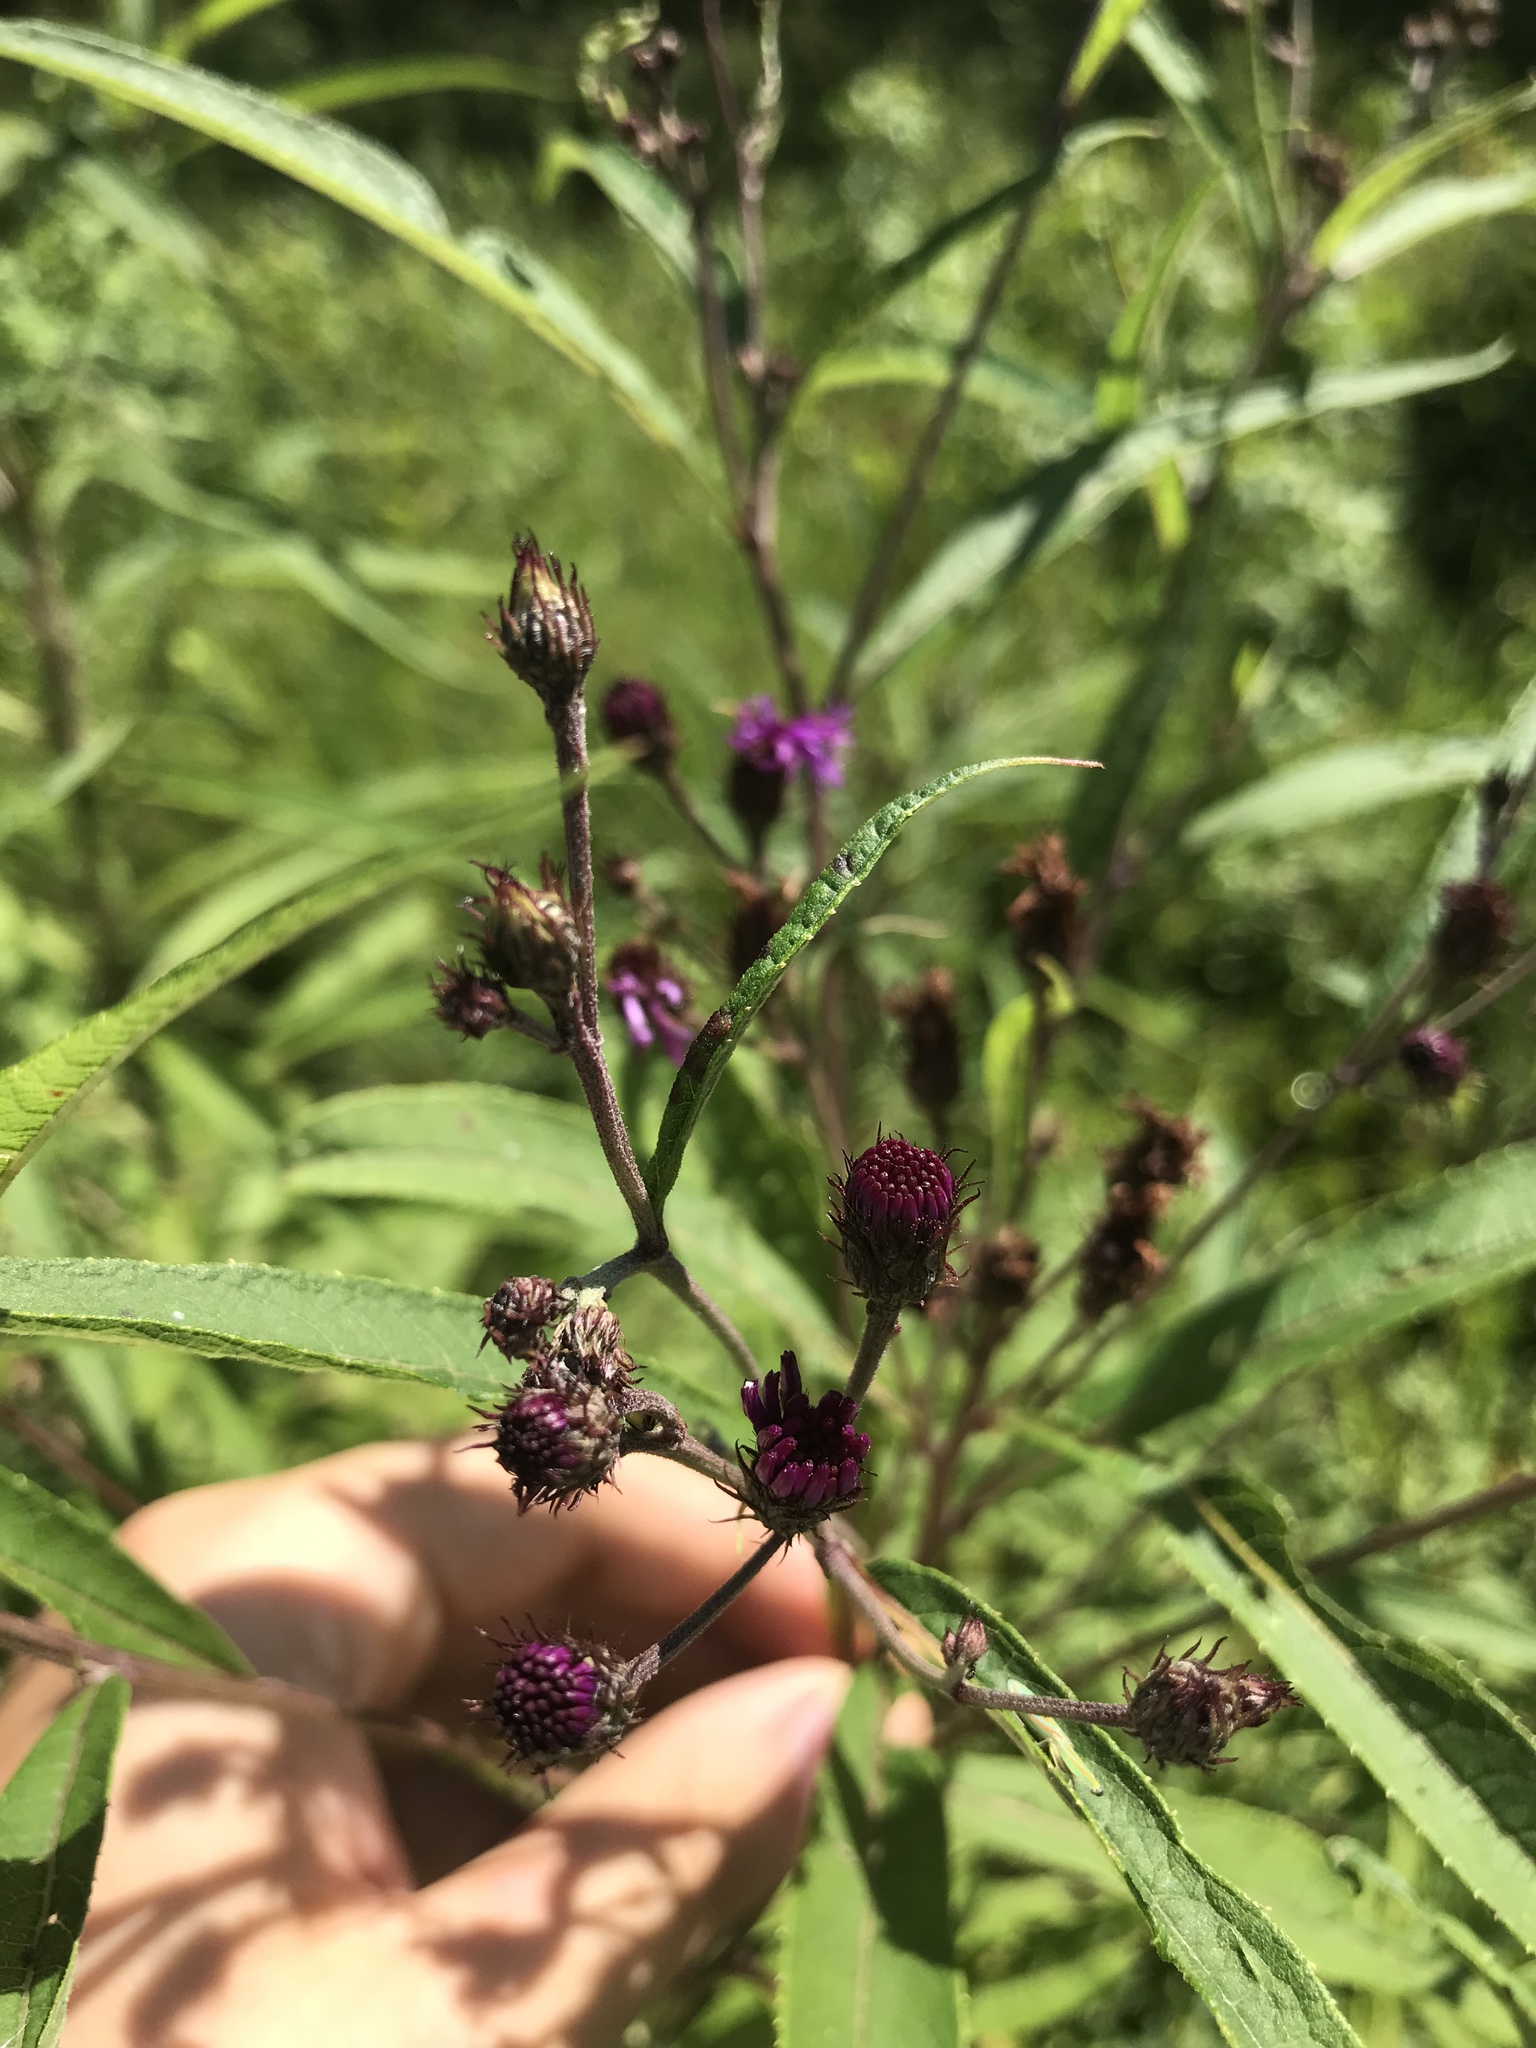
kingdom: Plantae
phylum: Tracheophyta
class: Magnoliopsida
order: Asterales
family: Asteraceae
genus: Vernonia
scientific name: Vernonia noveboracensis
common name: New york ironweed
